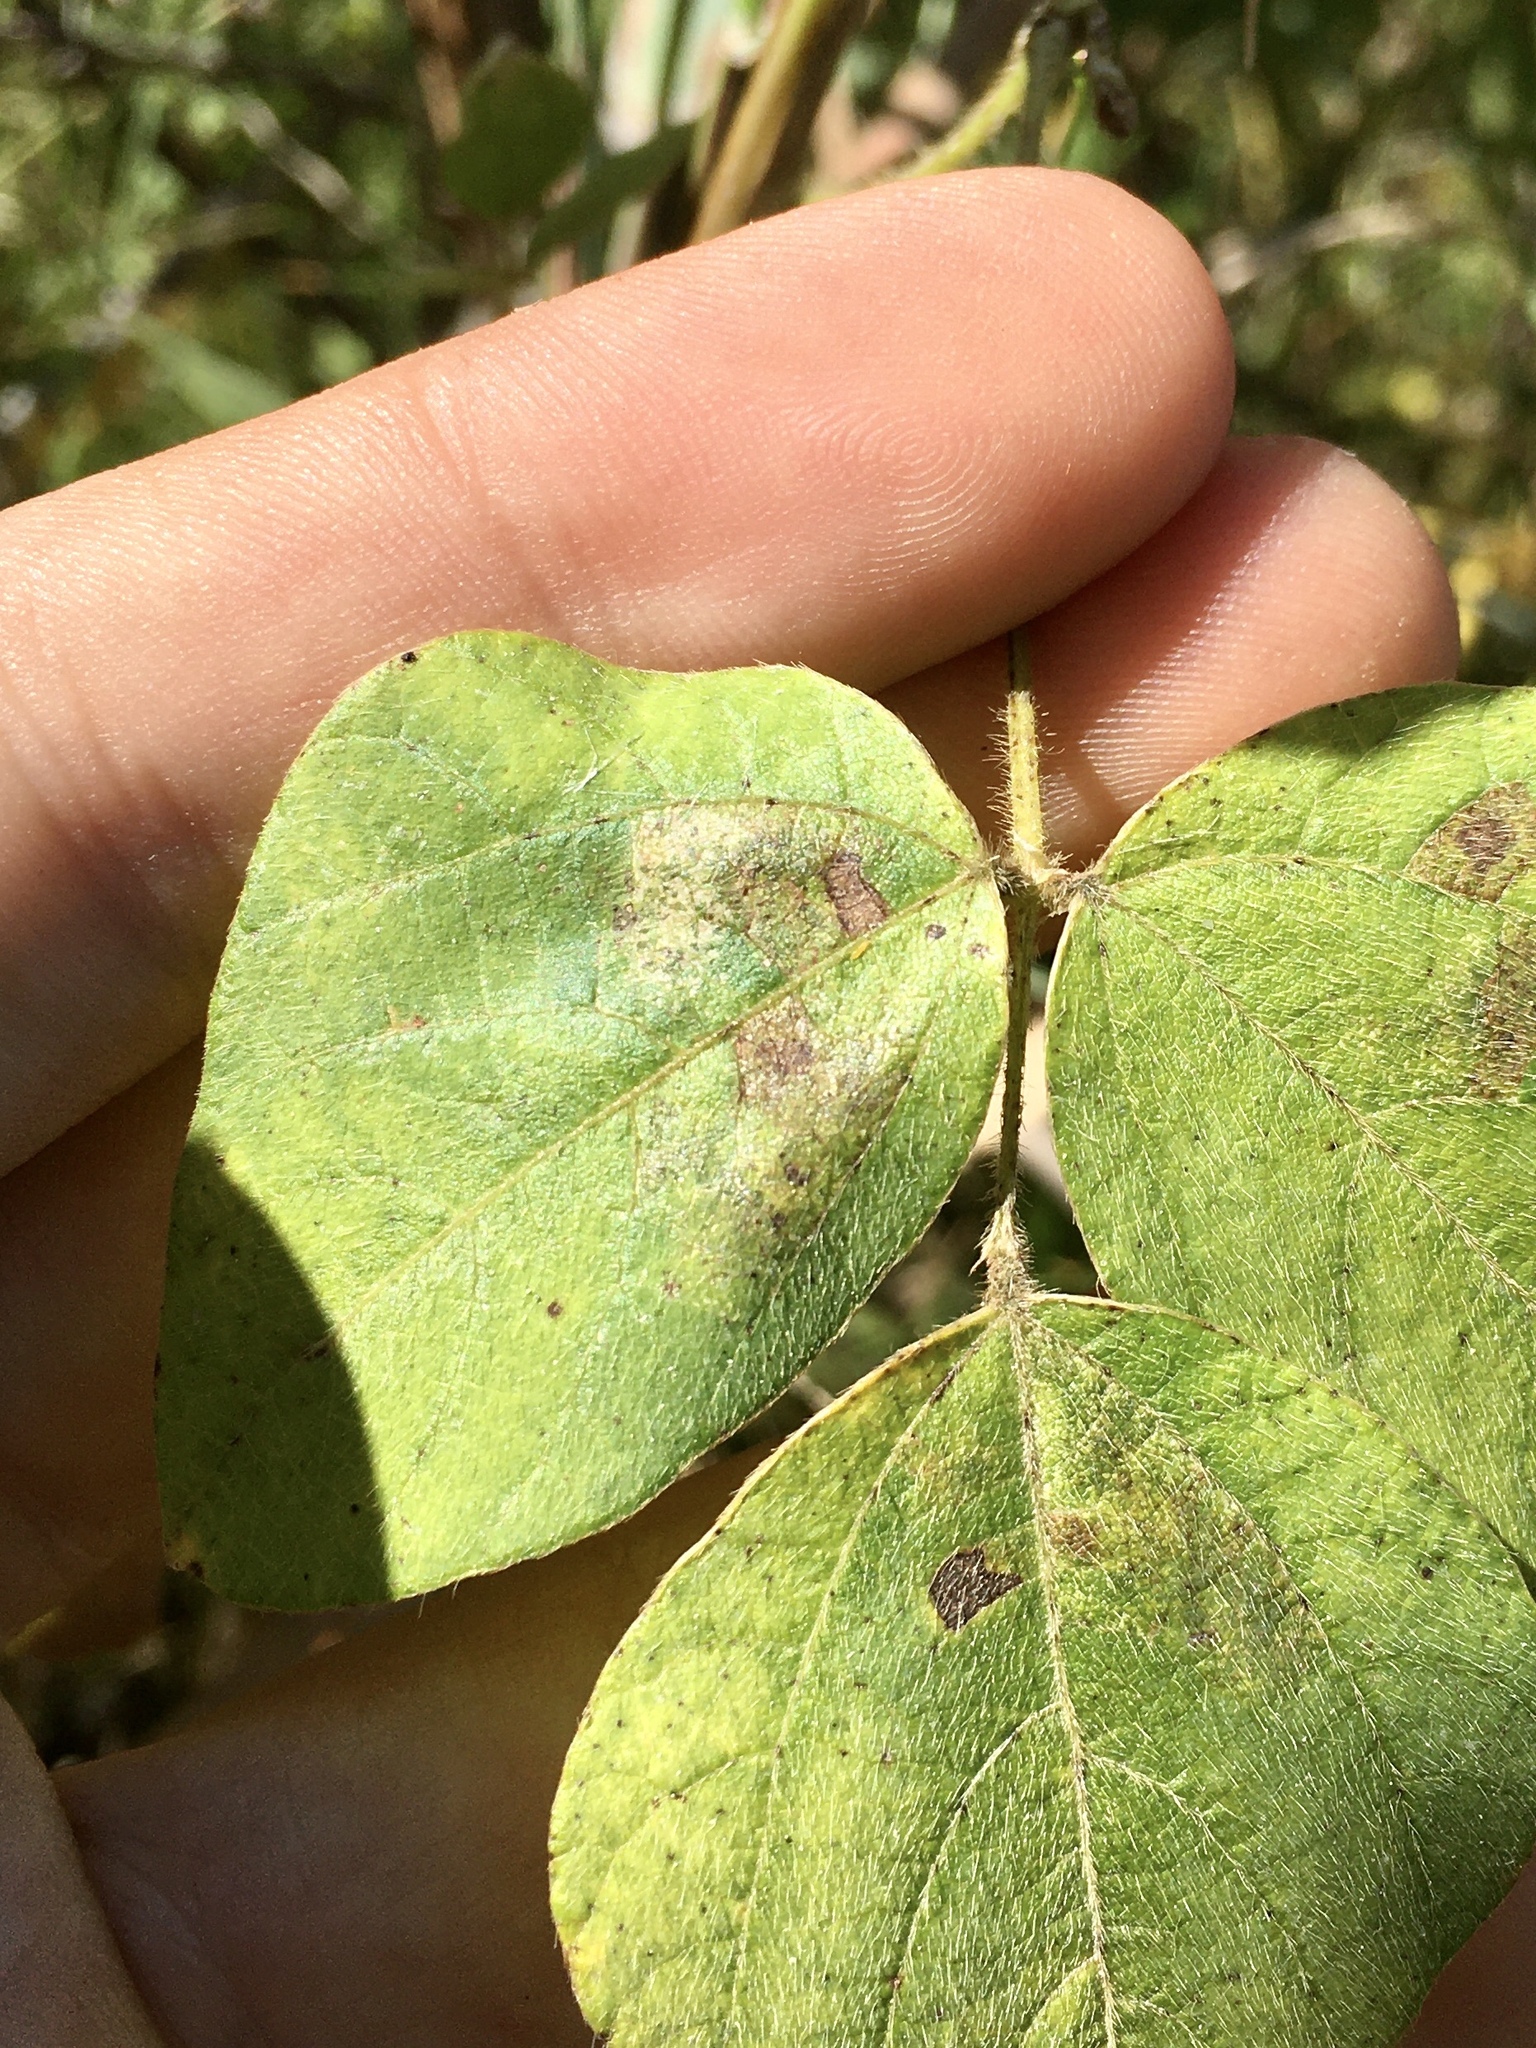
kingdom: Animalia
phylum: Arthropoda
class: Insecta
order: Lepidoptera
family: Gracillariidae
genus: Macrosaccus
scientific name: Macrosaccus morrisella
